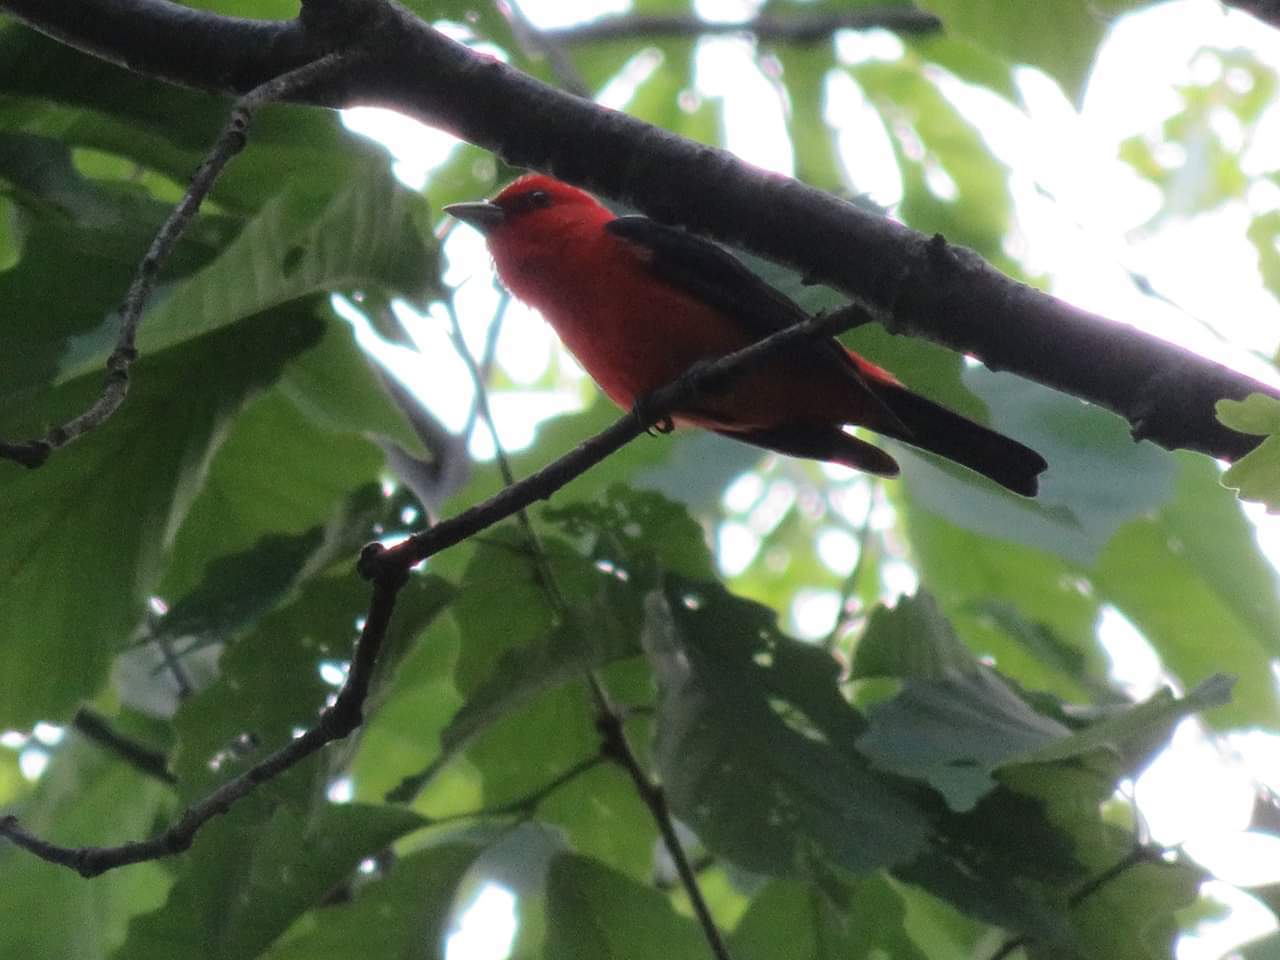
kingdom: Animalia
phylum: Chordata
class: Aves
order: Passeriformes
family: Cardinalidae
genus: Piranga
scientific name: Piranga olivacea
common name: Scarlet tanager
